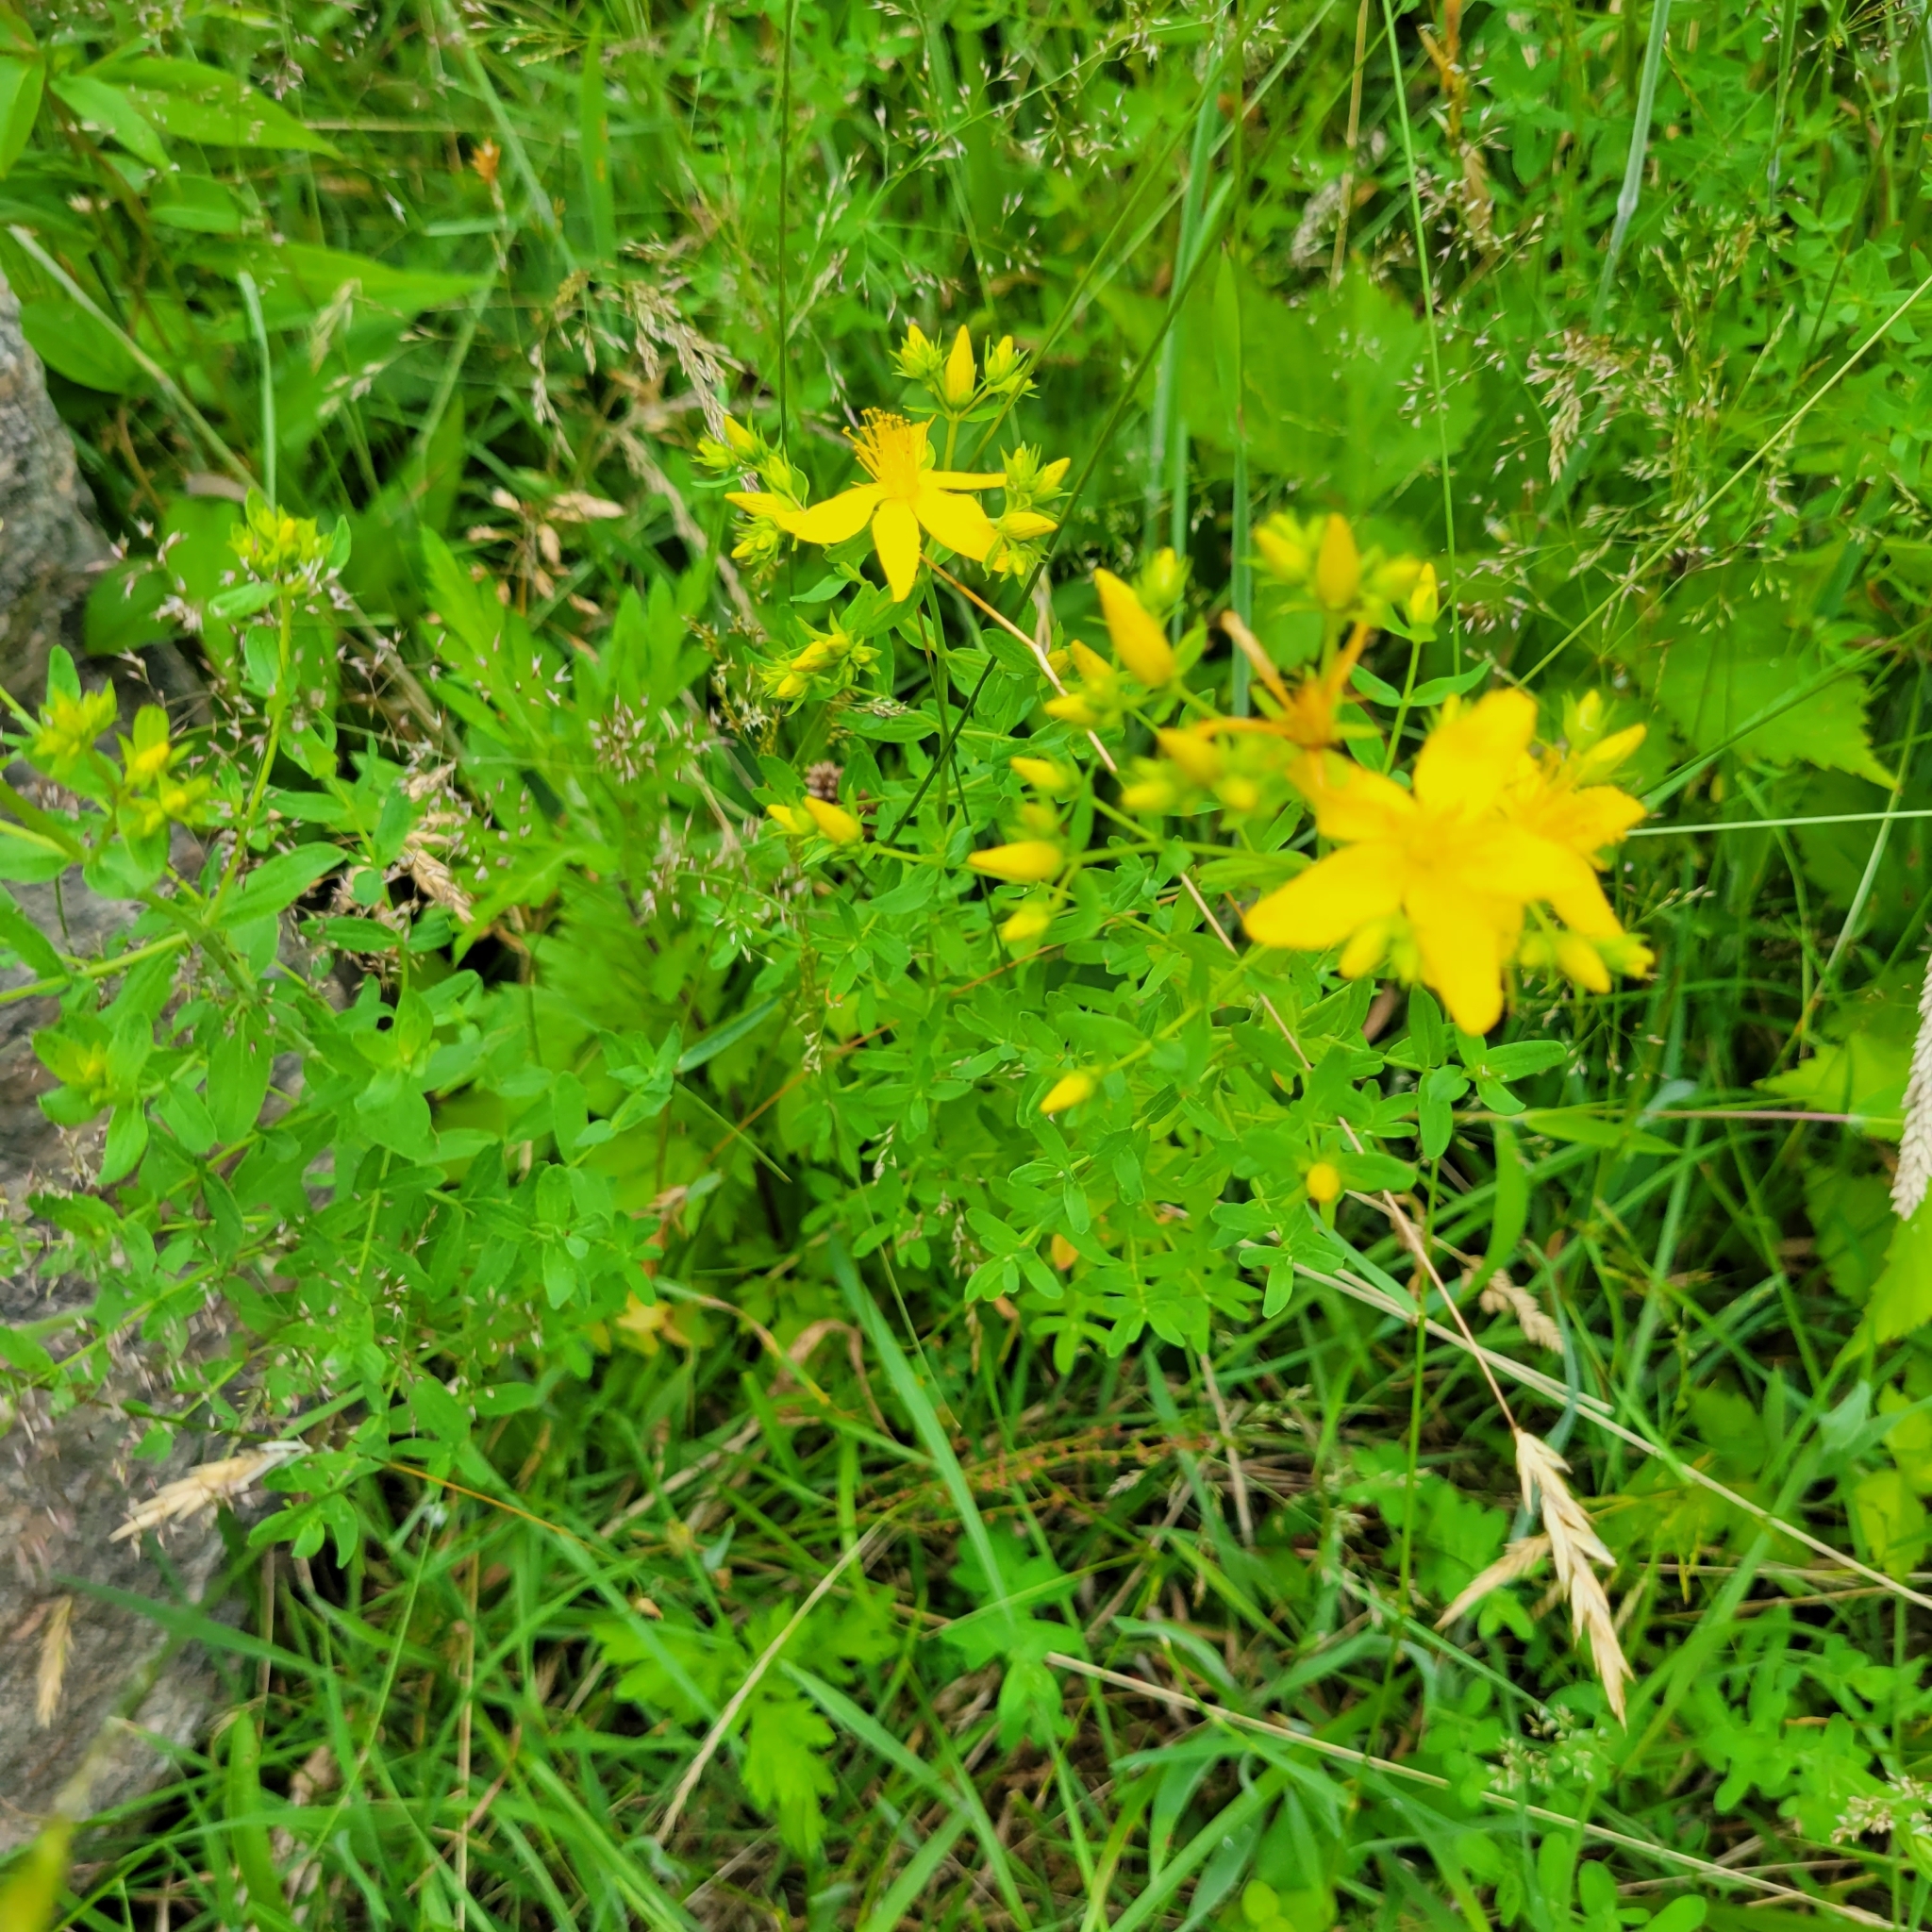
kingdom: Plantae
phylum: Tracheophyta
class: Magnoliopsida
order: Malpighiales
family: Hypericaceae
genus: Hypericum
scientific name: Hypericum perforatum
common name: Common st. johnswort
